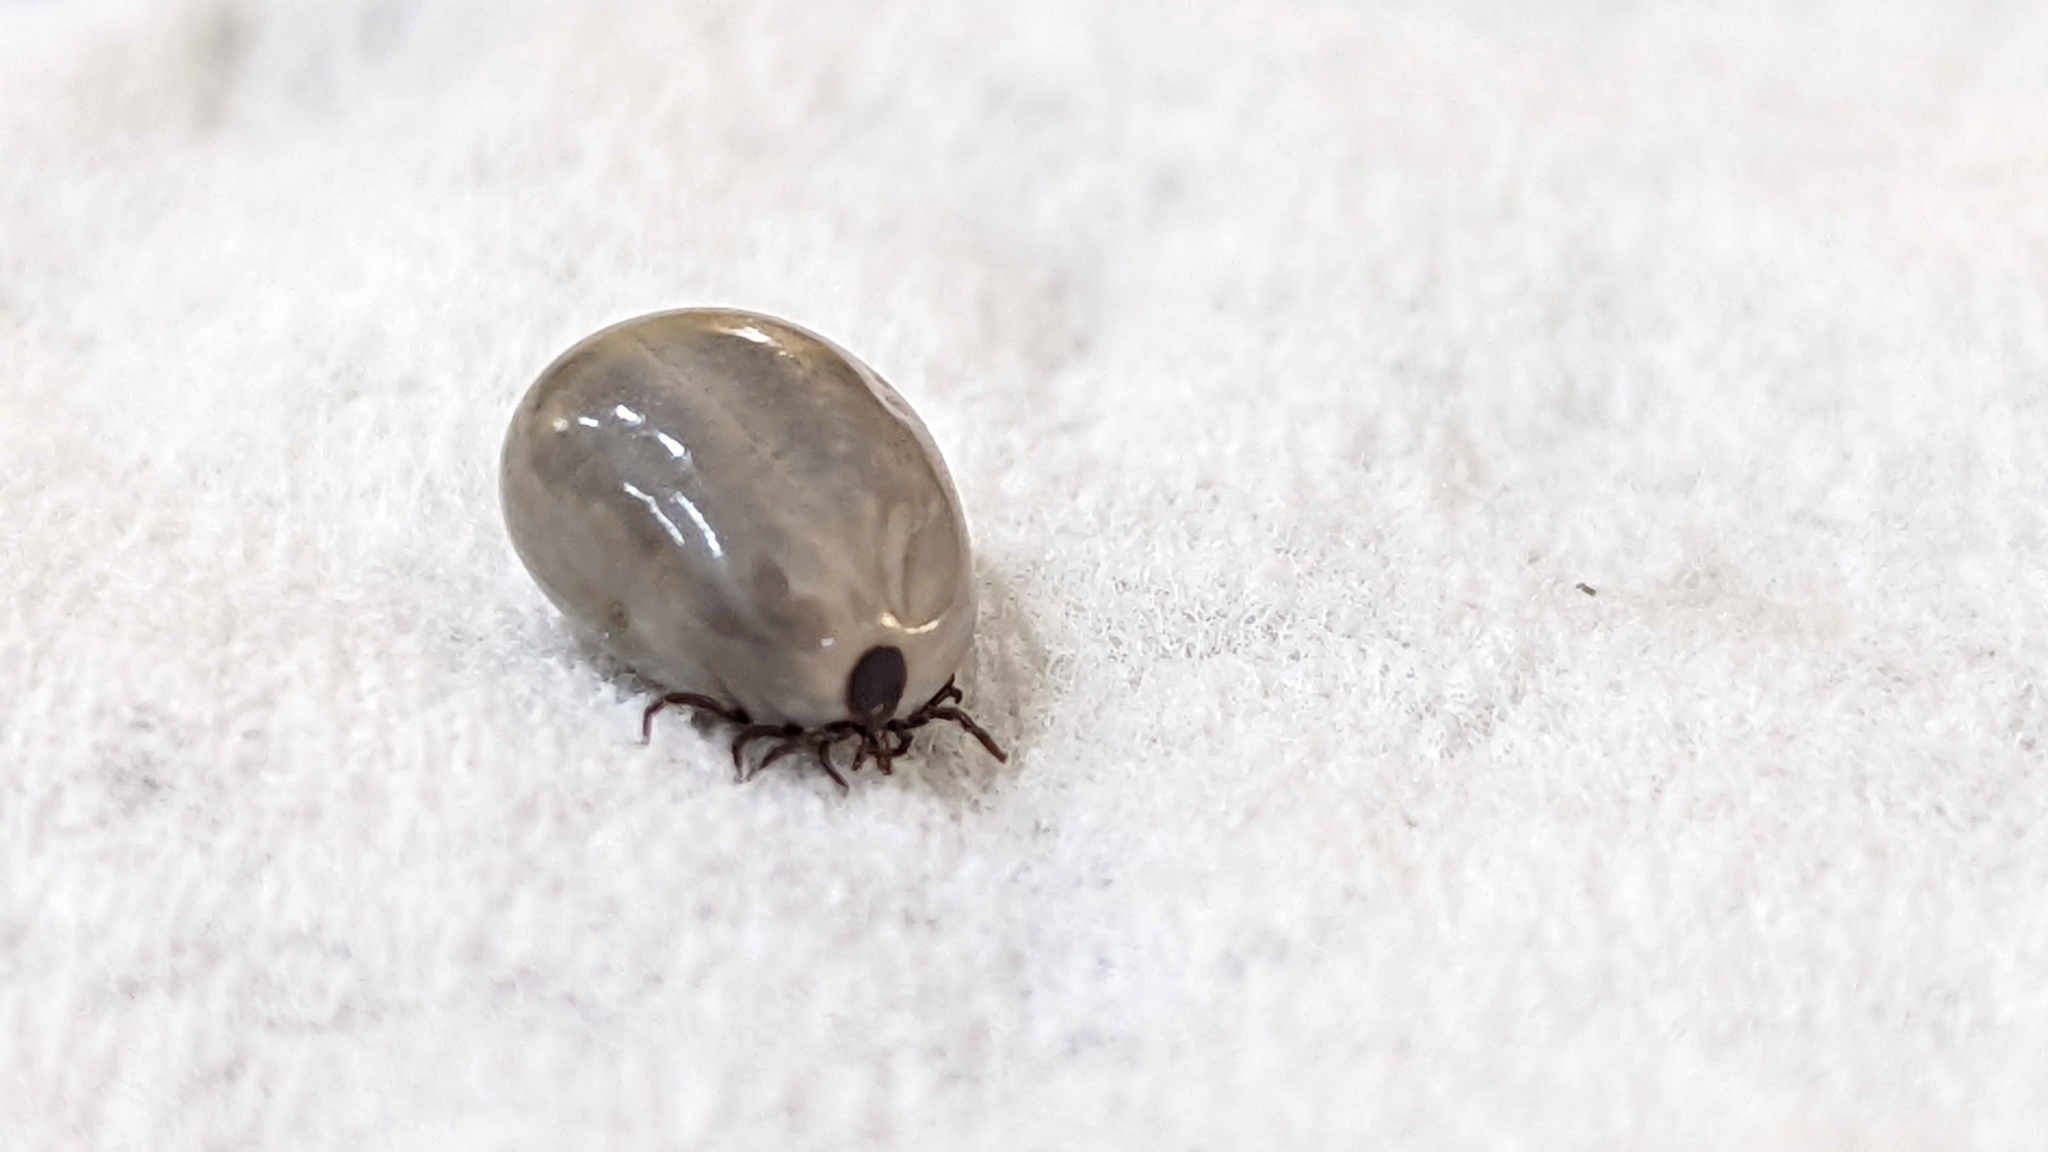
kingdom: Animalia
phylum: Arthropoda
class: Arachnida
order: Ixodida
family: Ixodidae
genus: Ixodes
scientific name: Ixodes scapularis
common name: Black legged tick
